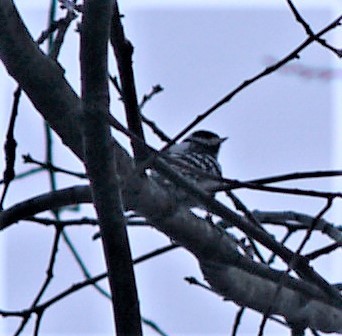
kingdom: Animalia
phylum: Chordata
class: Aves
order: Piciformes
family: Picidae
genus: Dryobates
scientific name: Dryobates pubescens
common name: Downy woodpecker
